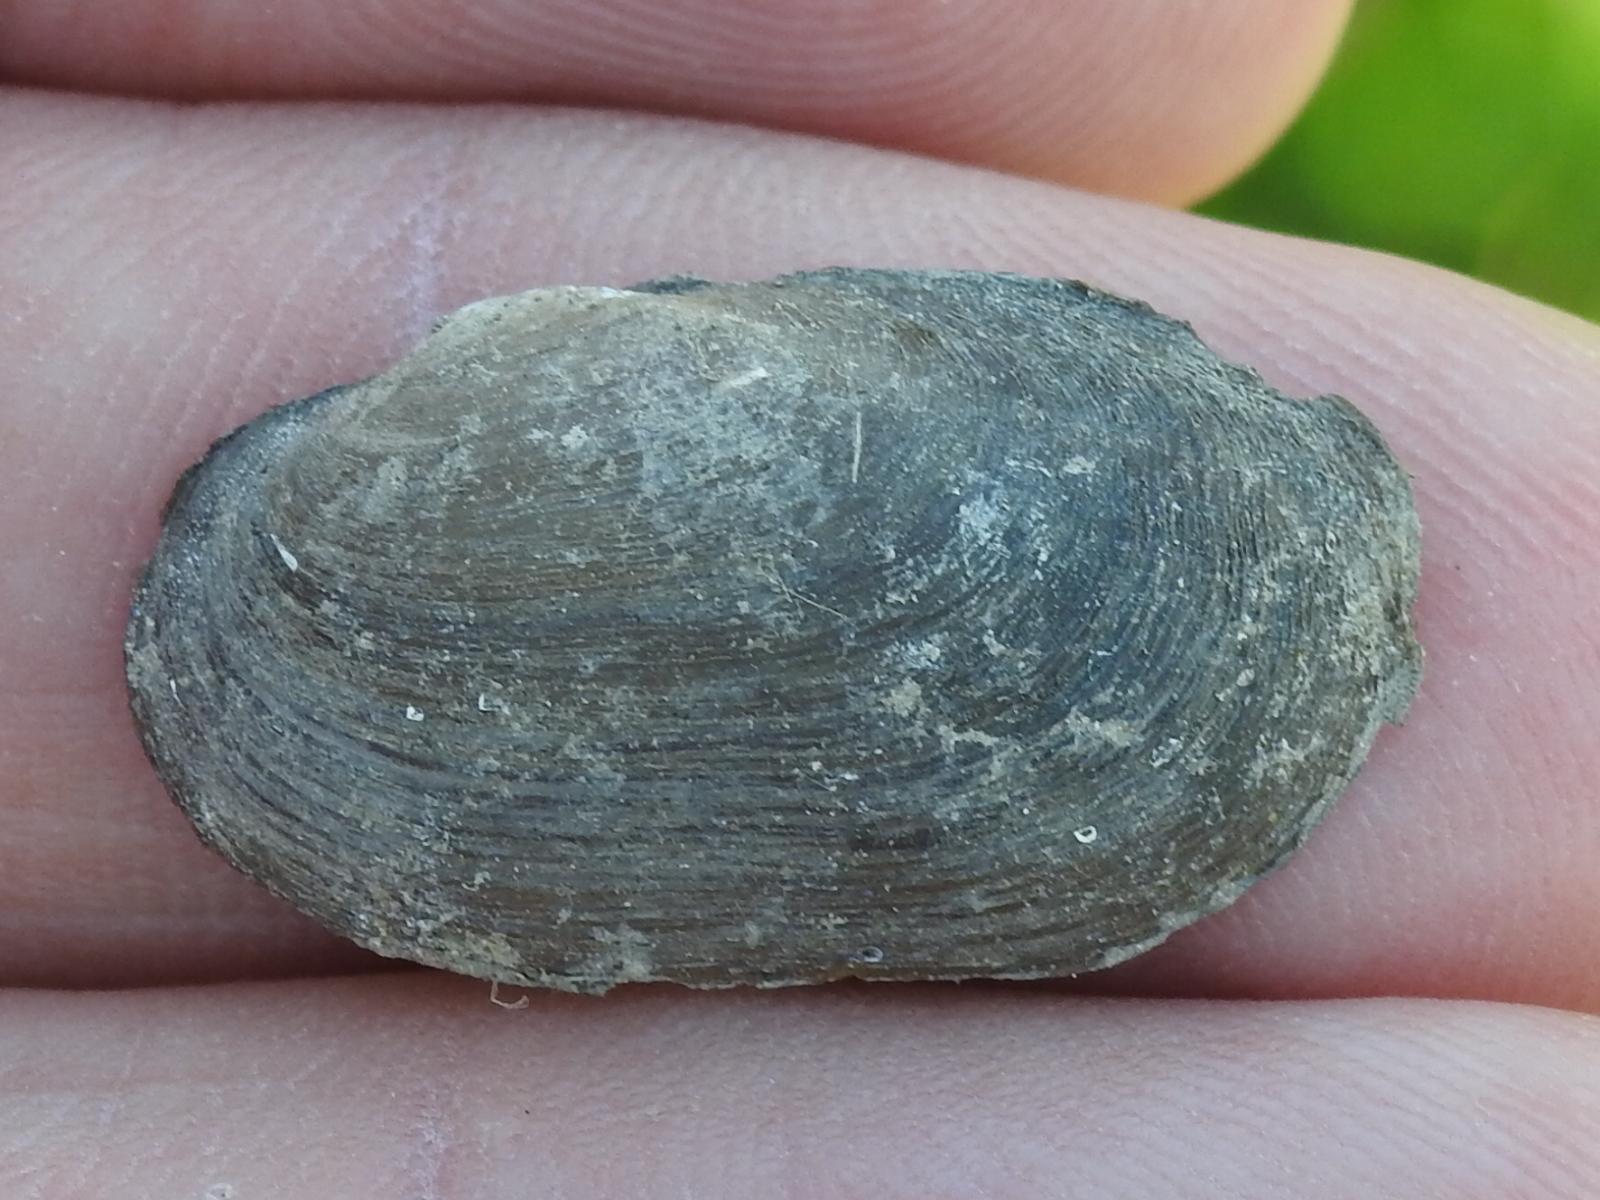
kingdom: Animalia
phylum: Mollusca
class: Bivalvia
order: Unionida
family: Unionidae
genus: Toxolasma
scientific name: Toxolasma parvum
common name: Lilliput
